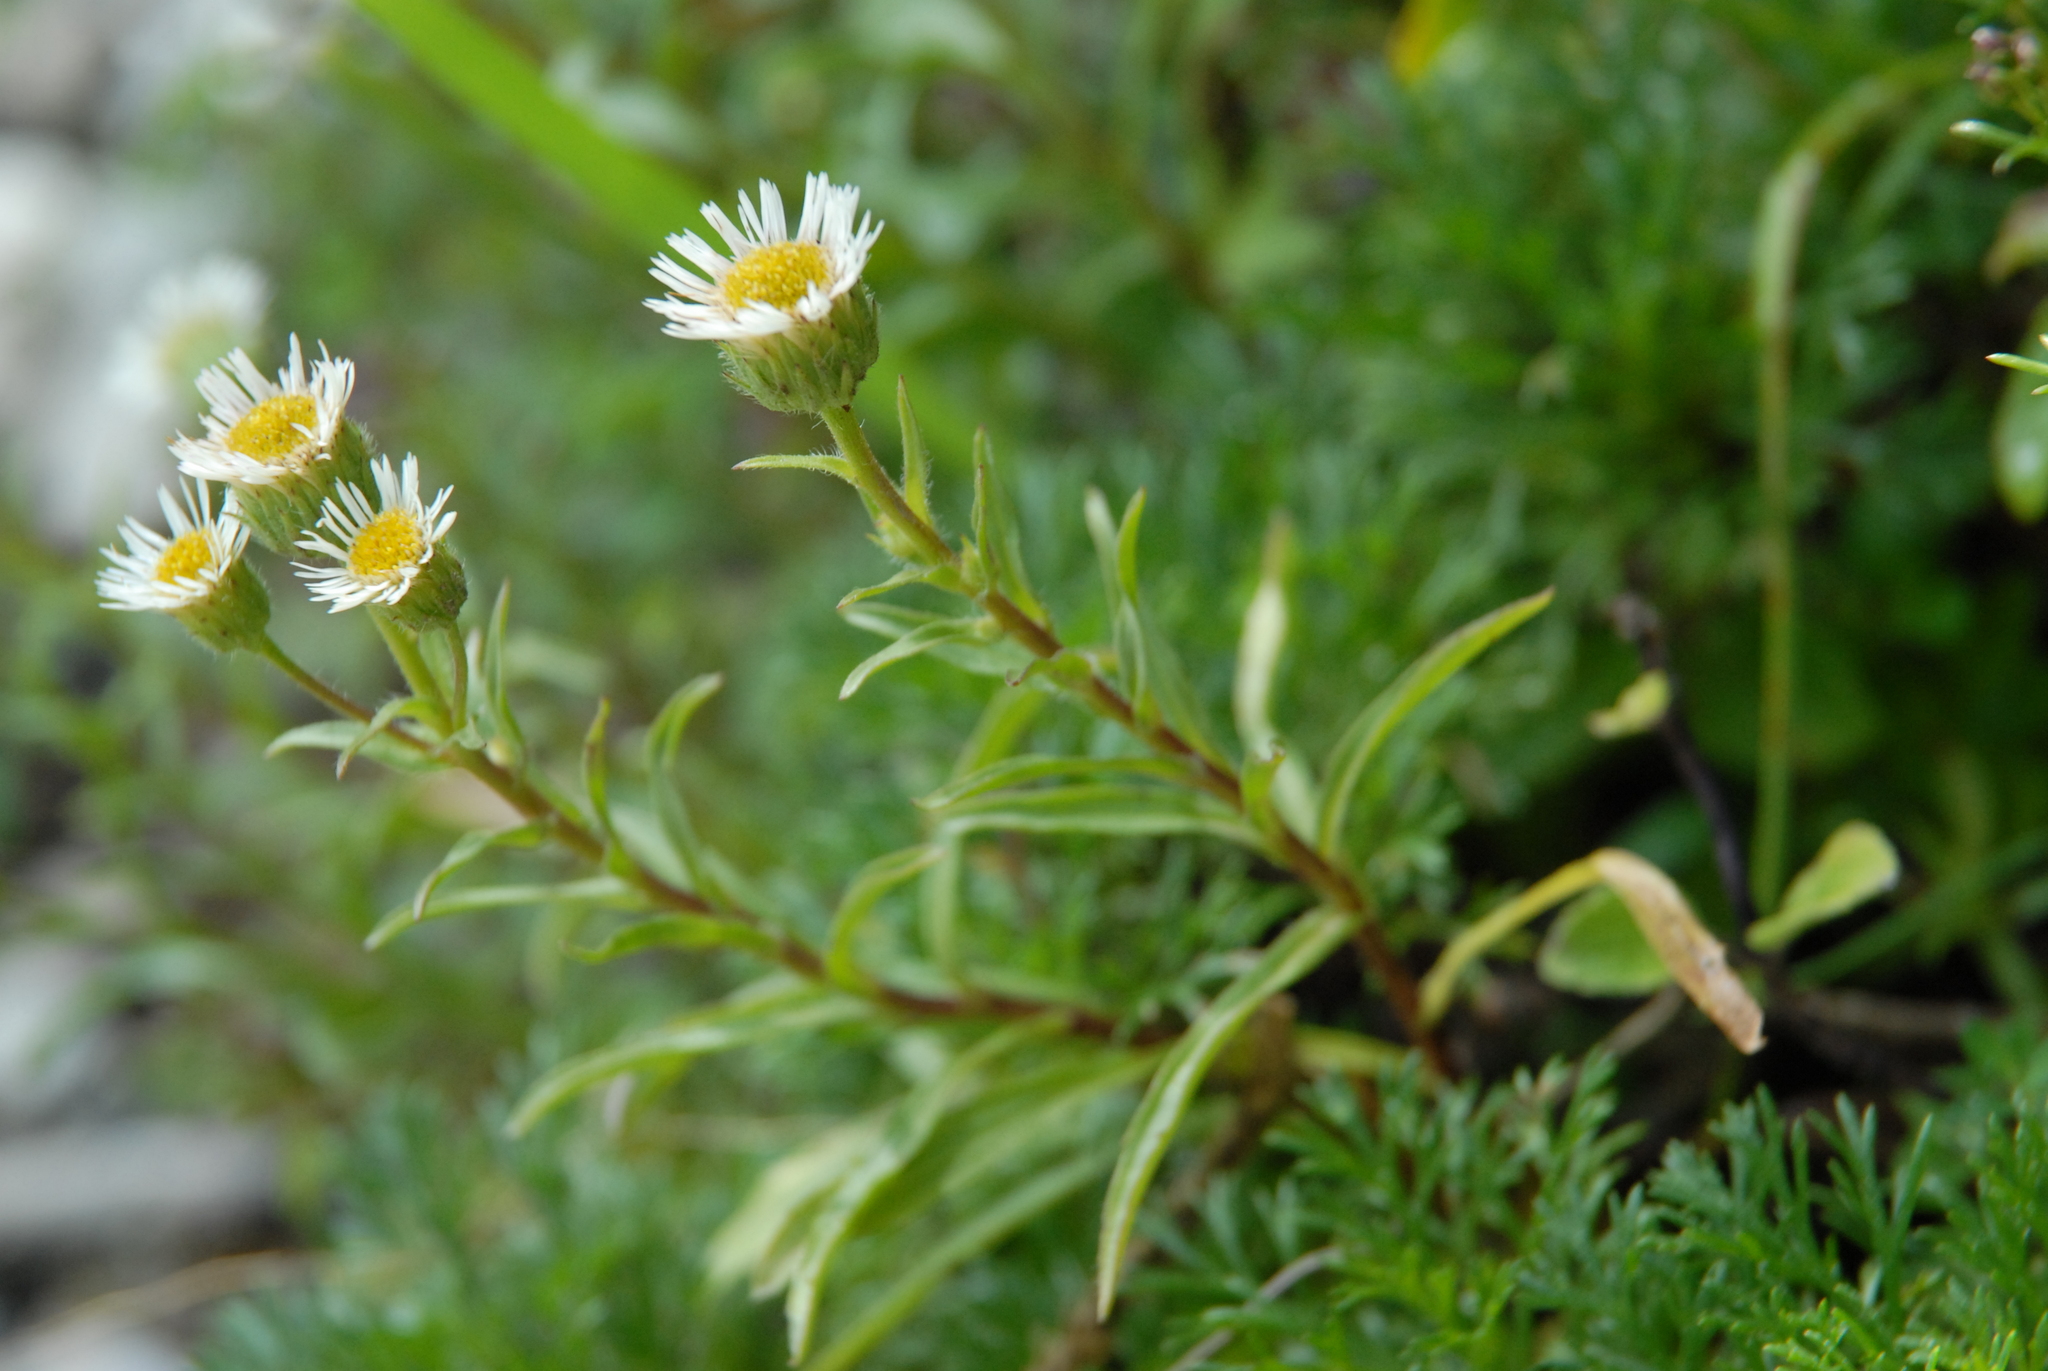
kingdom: Plantae
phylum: Tracheophyta
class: Magnoliopsida
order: Asterales
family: Asteraceae
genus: Erigeron
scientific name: Erigeron morrisonensis
